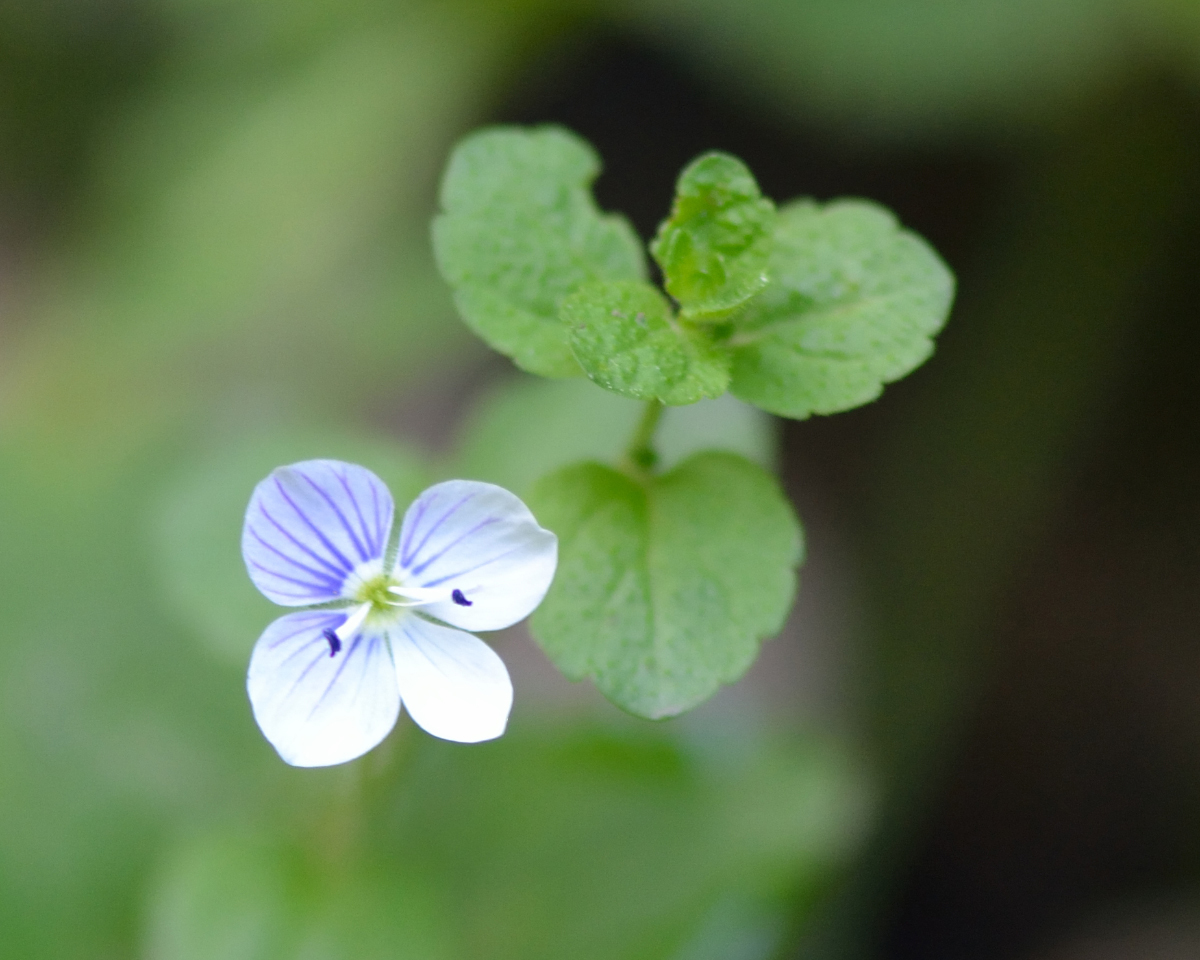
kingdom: Plantae
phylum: Tracheophyta
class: Magnoliopsida
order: Lamiales
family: Plantaginaceae
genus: Veronica
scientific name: Veronica filiformis
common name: Slender speedwell
